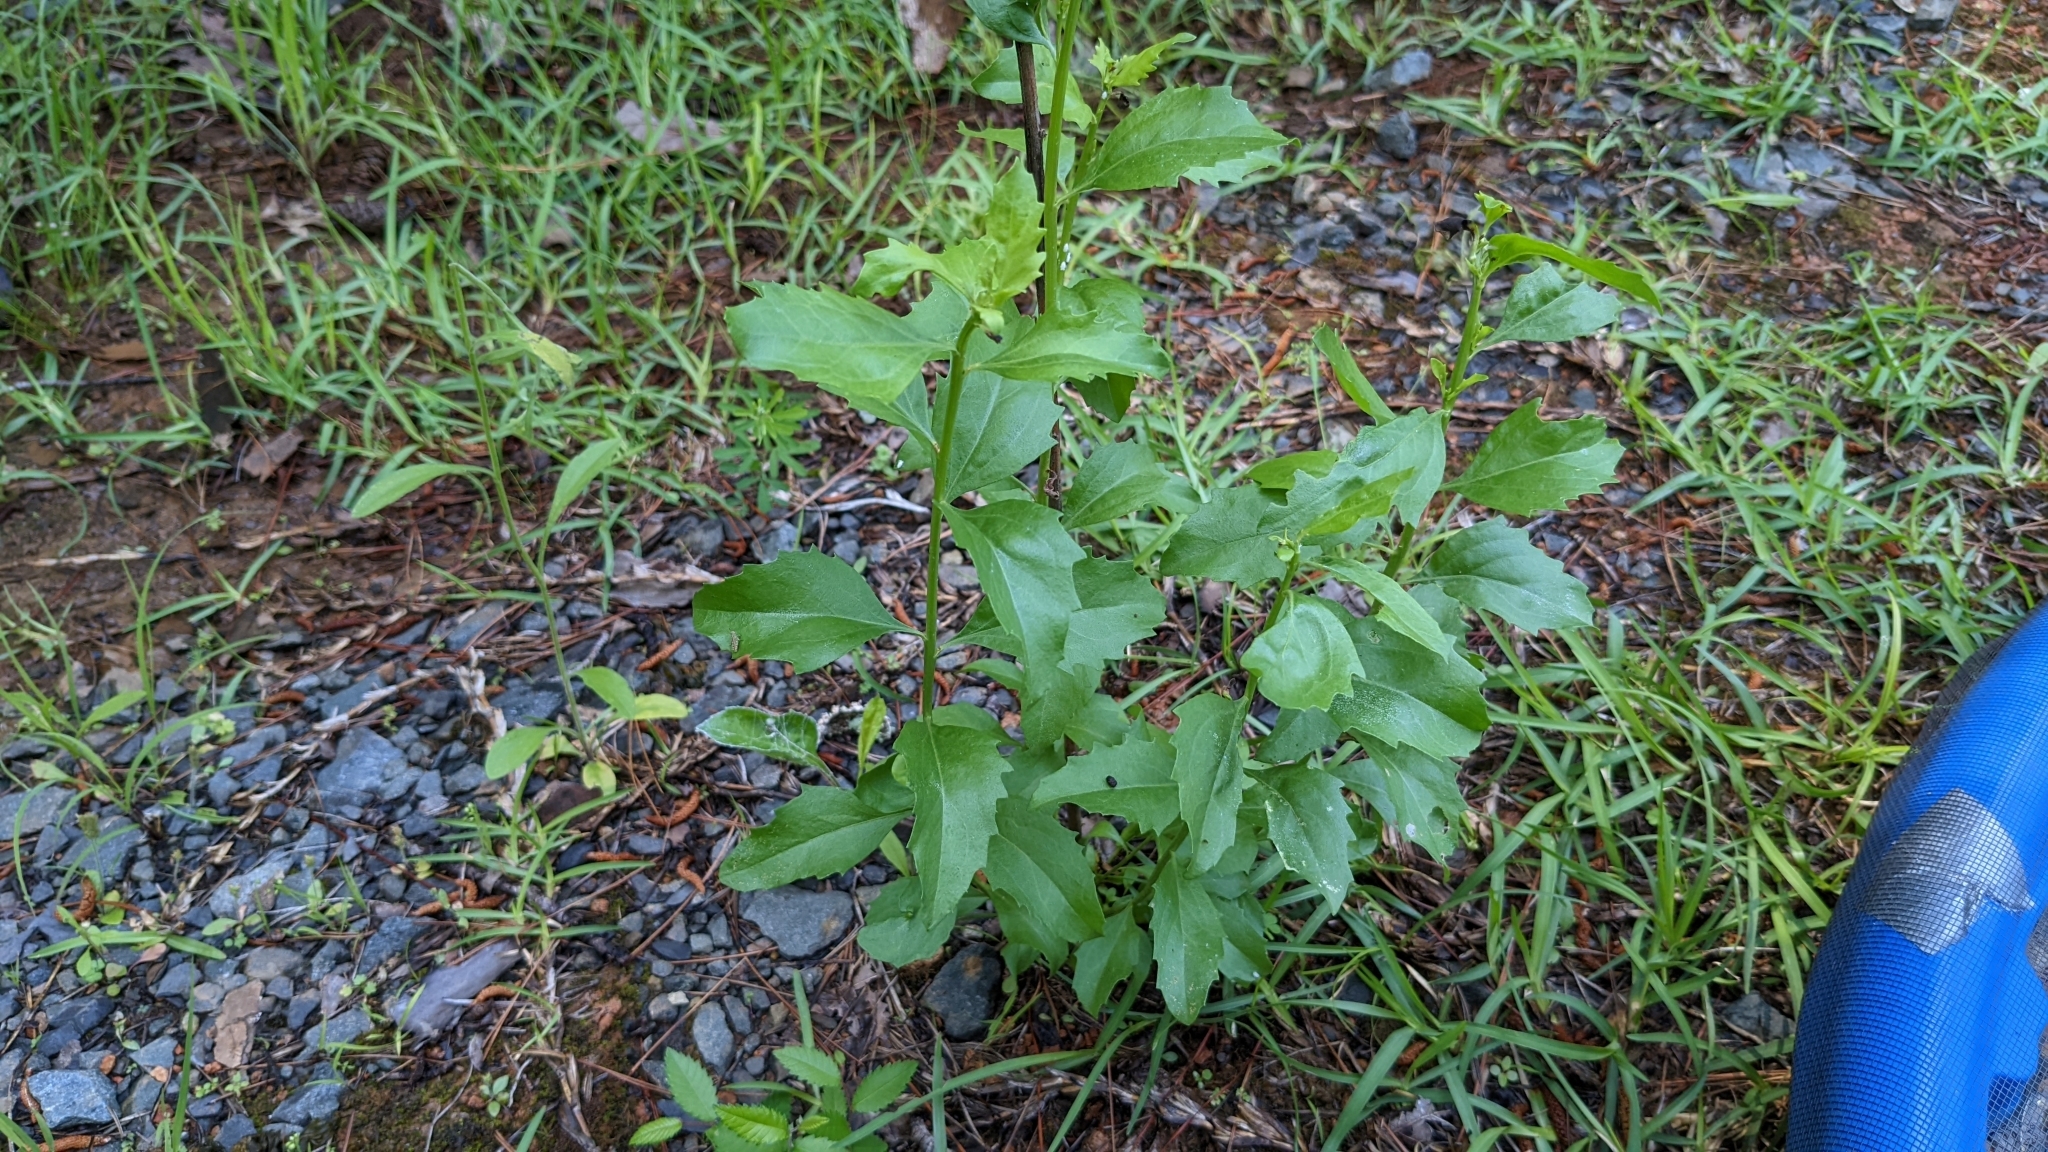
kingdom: Plantae
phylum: Tracheophyta
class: Magnoliopsida
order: Asterales
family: Asteraceae
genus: Baccharis
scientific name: Baccharis halimifolia
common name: Eastern baccharis
